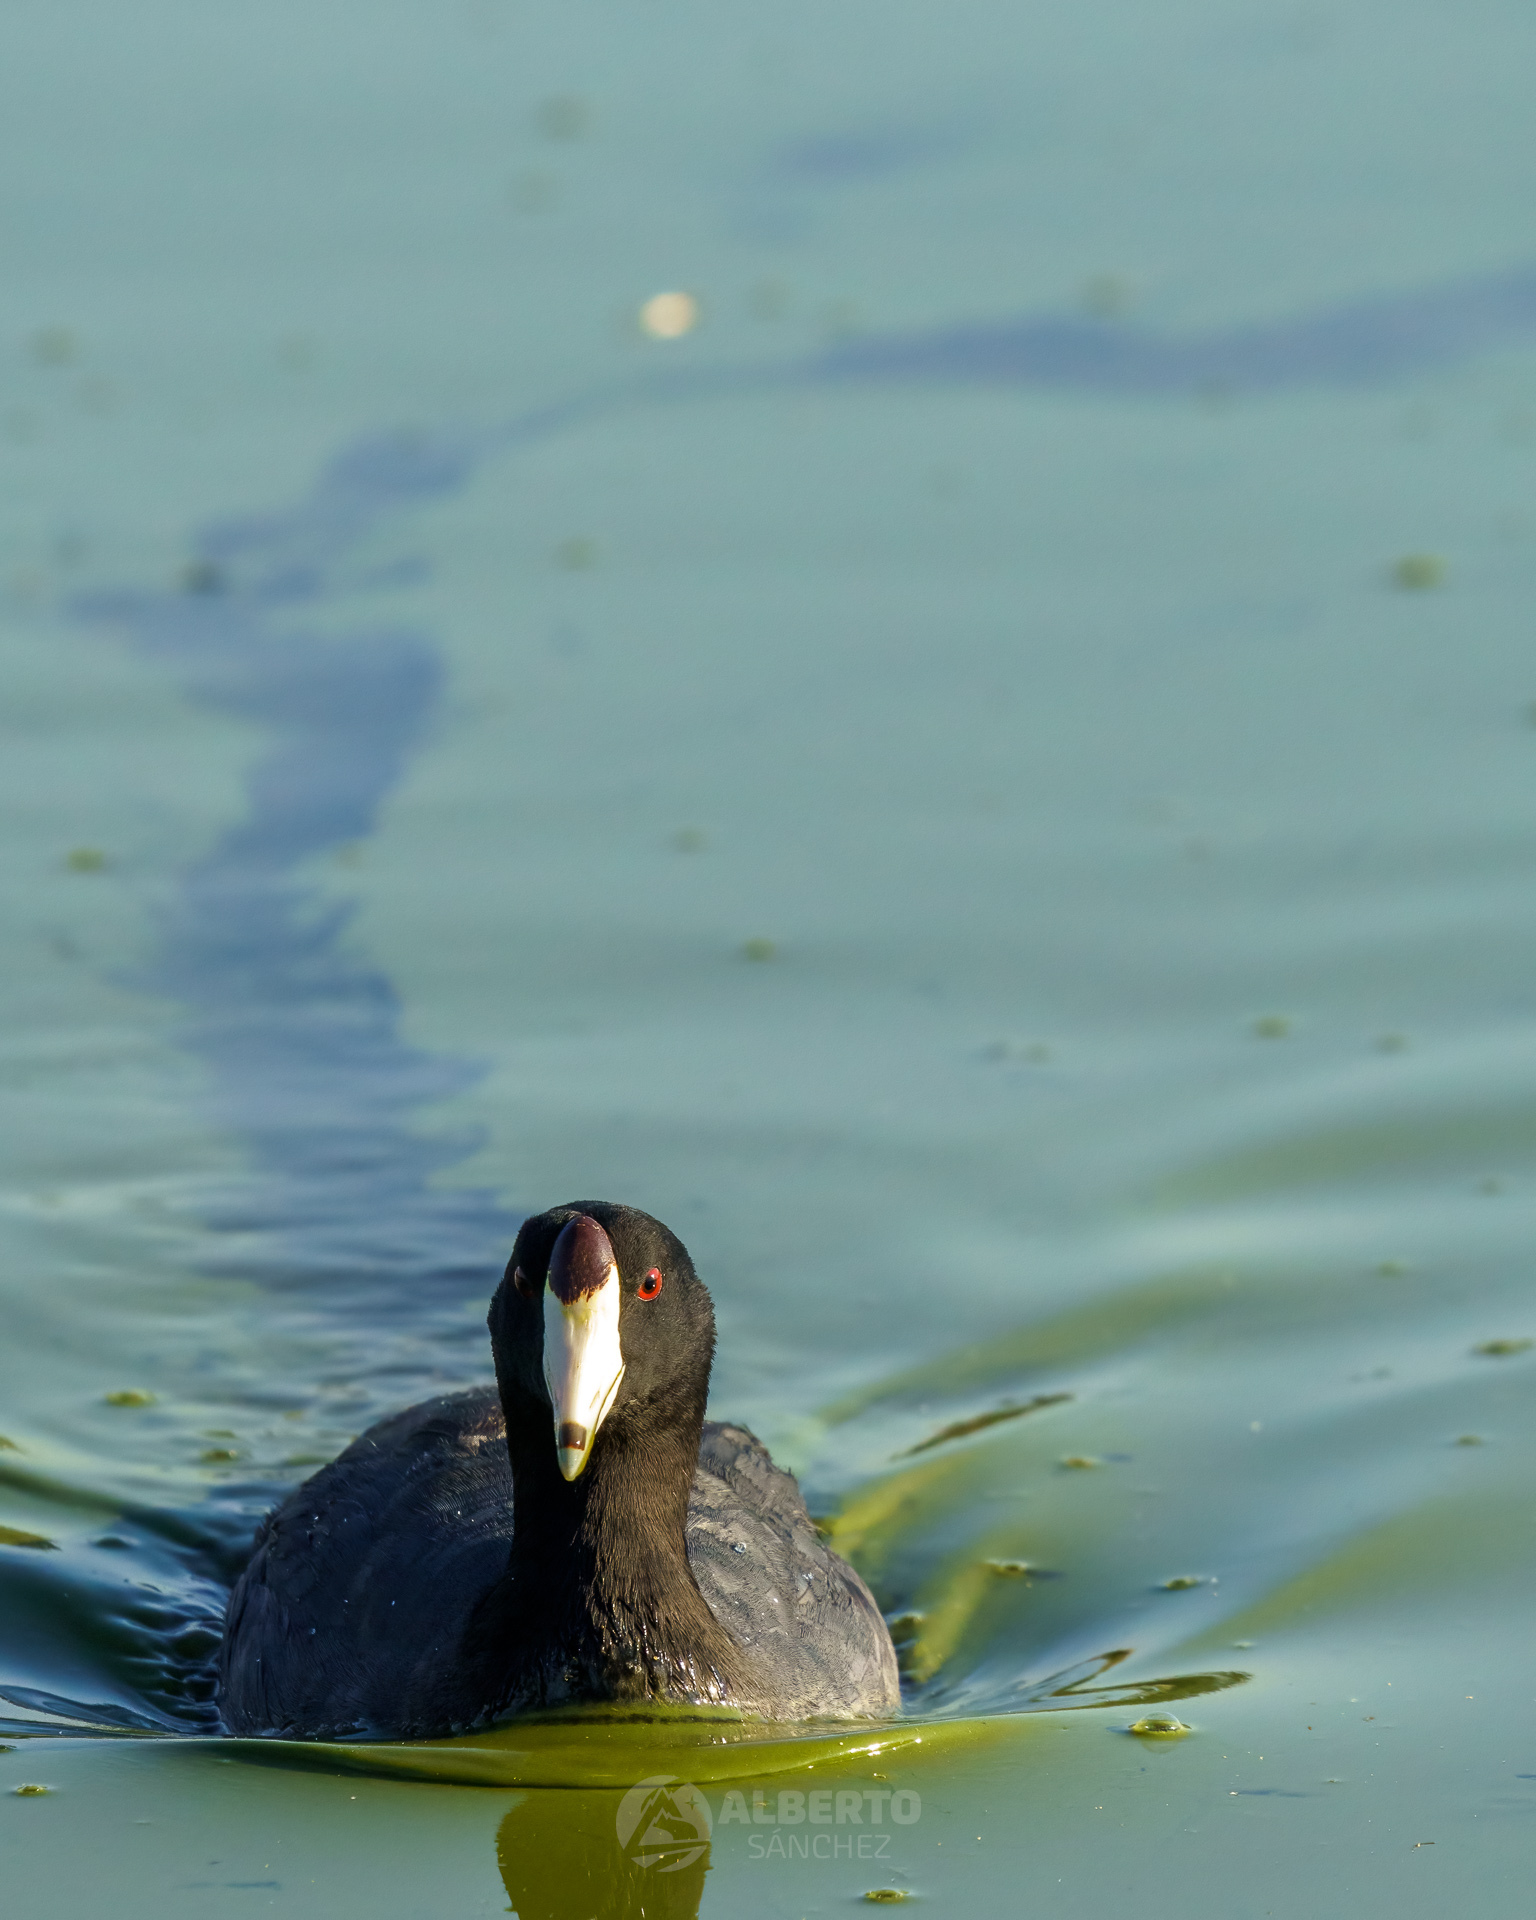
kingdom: Animalia
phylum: Chordata
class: Aves
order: Gruiformes
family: Rallidae
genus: Fulica
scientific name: Fulica americana
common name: American coot
